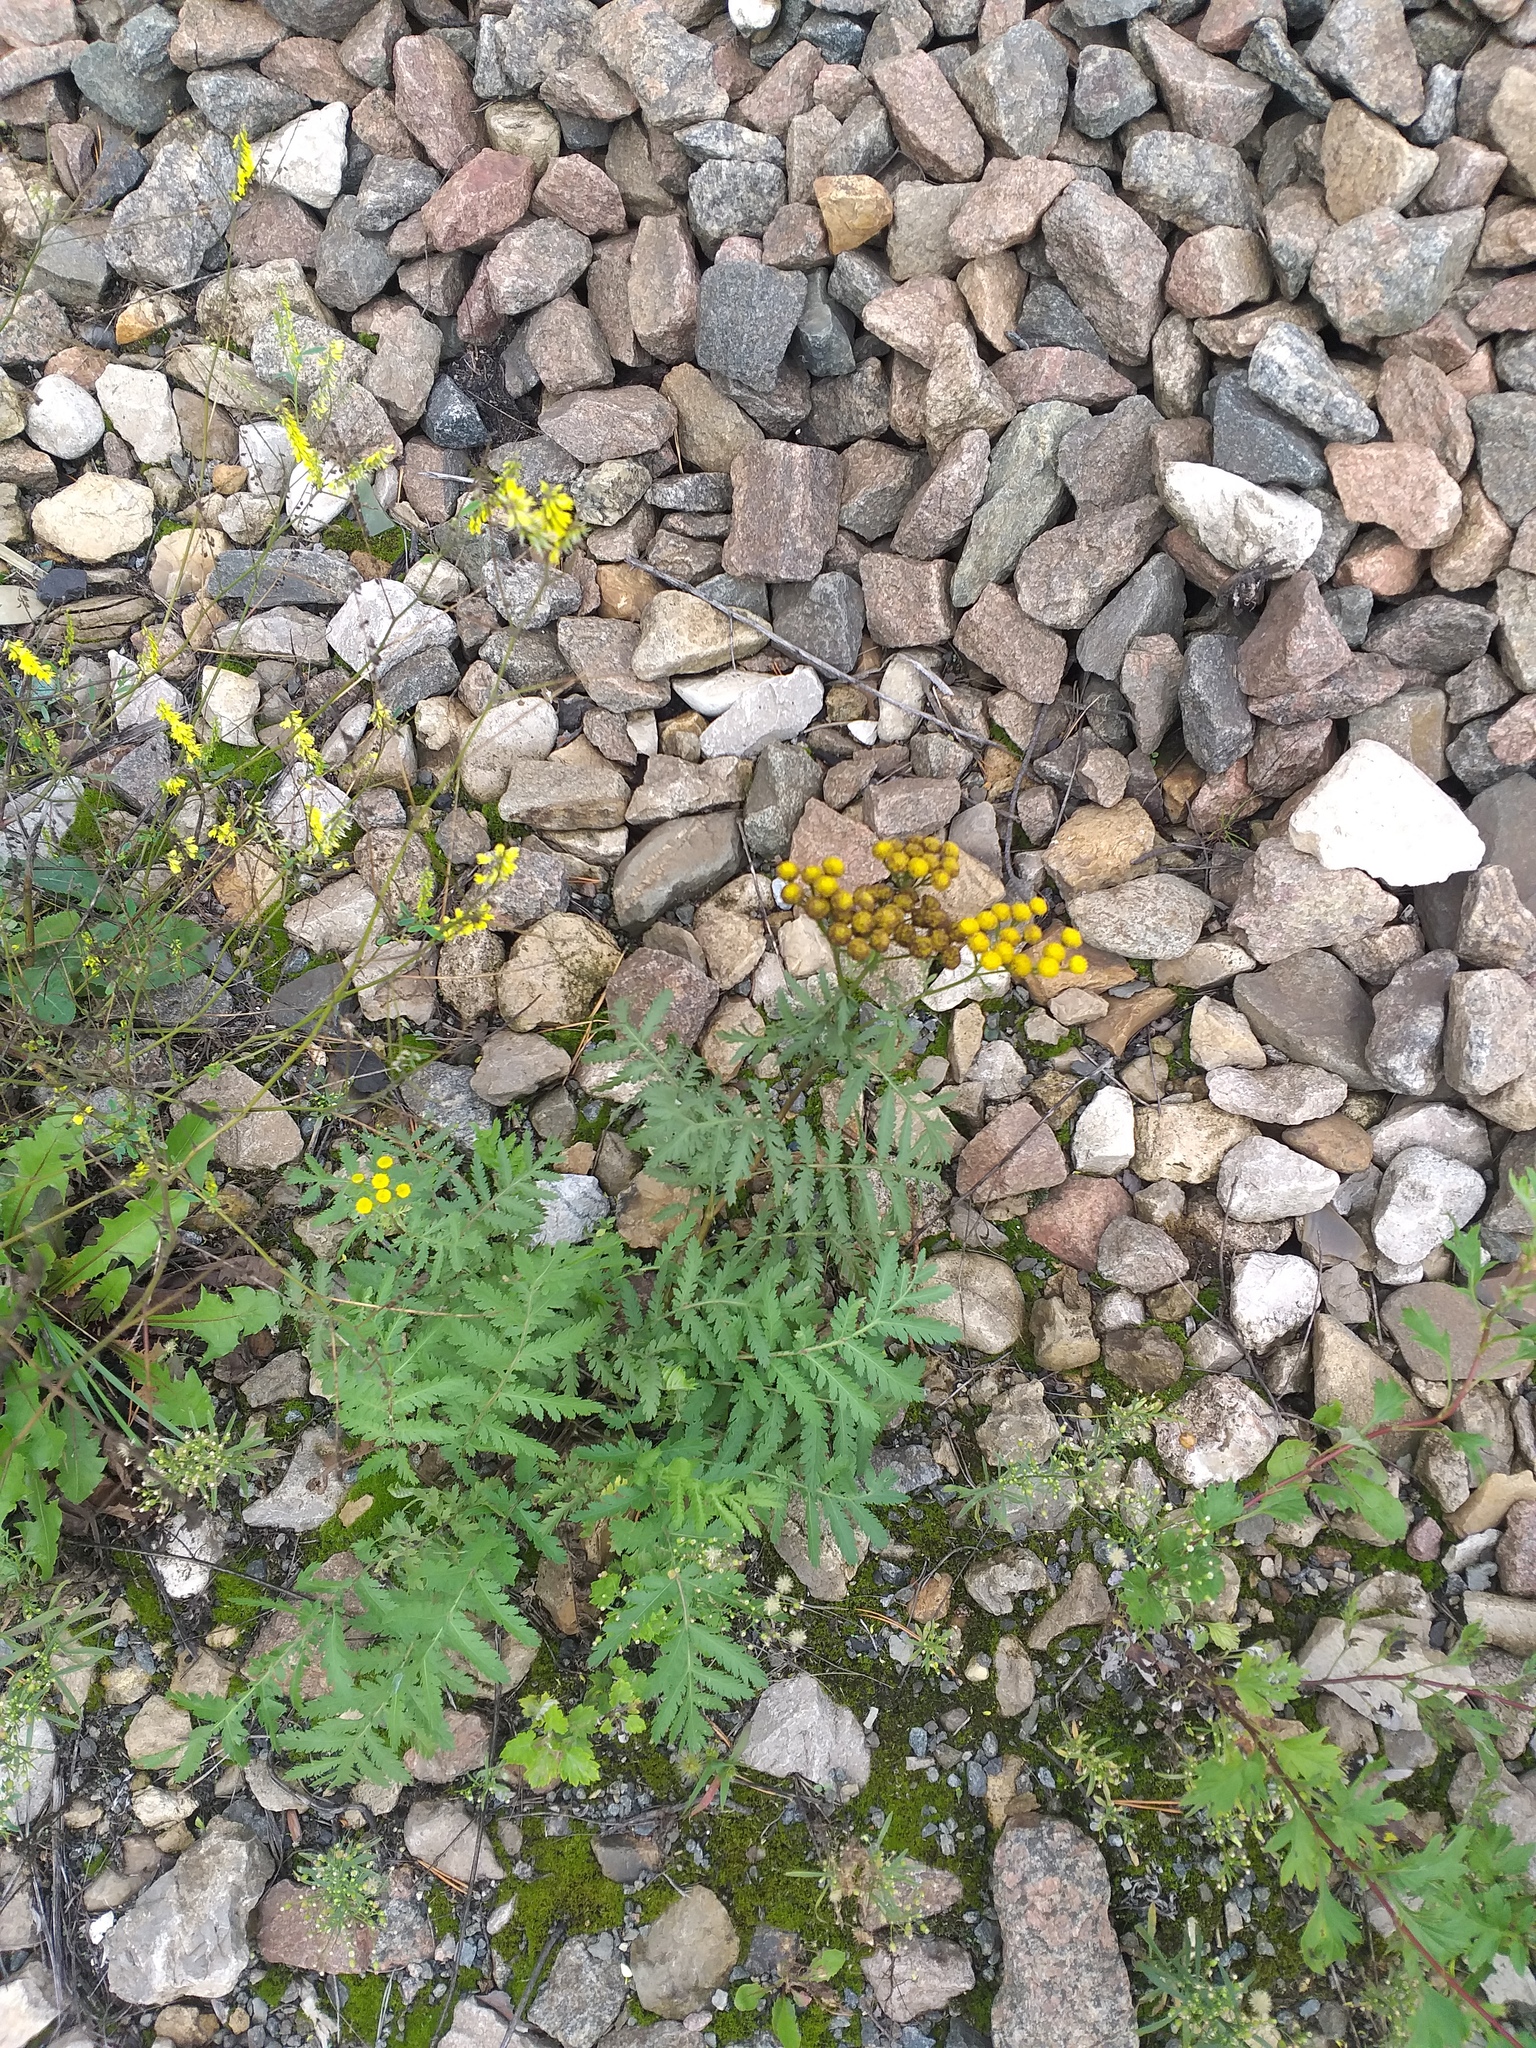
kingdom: Plantae
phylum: Tracheophyta
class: Magnoliopsida
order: Asterales
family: Asteraceae
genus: Tanacetum
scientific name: Tanacetum vulgare
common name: Common tansy
